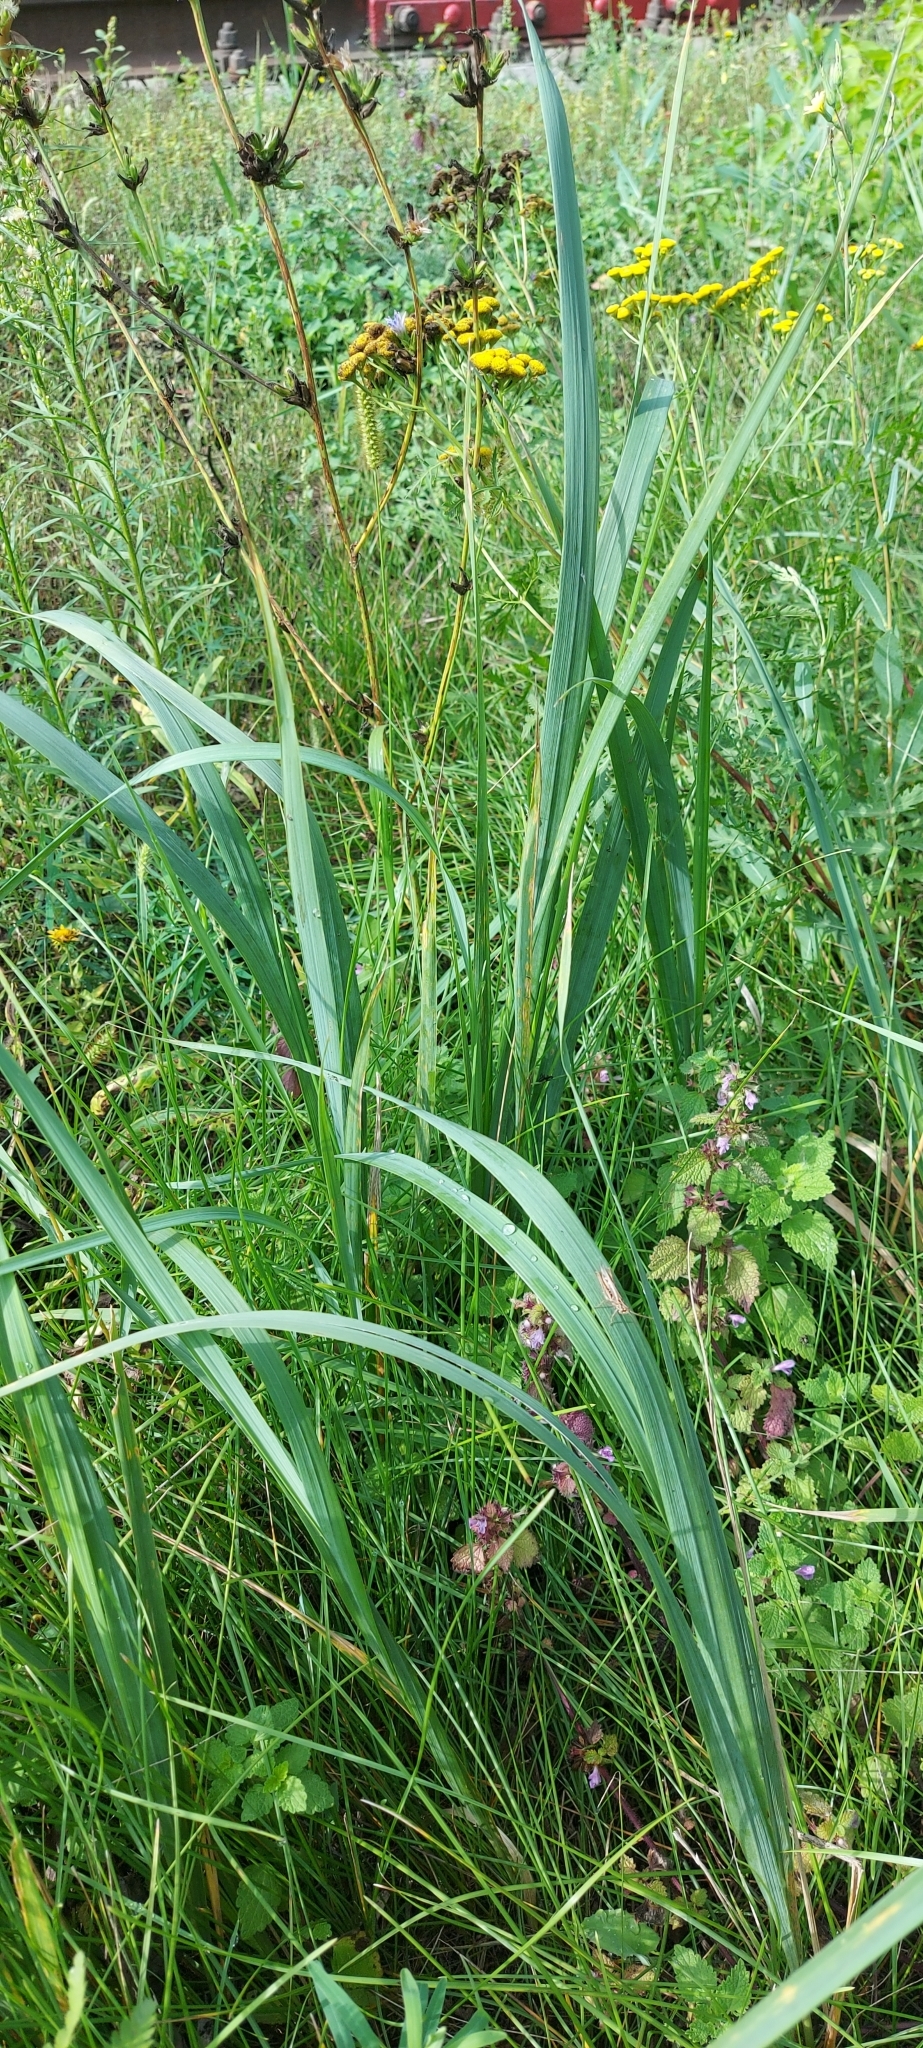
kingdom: Plantae
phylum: Tracheophyta
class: Liliopsida
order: Poales
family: Poaceae
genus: Calamagrostis
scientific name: Calamagrostis epigejos
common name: Wood small-reed
